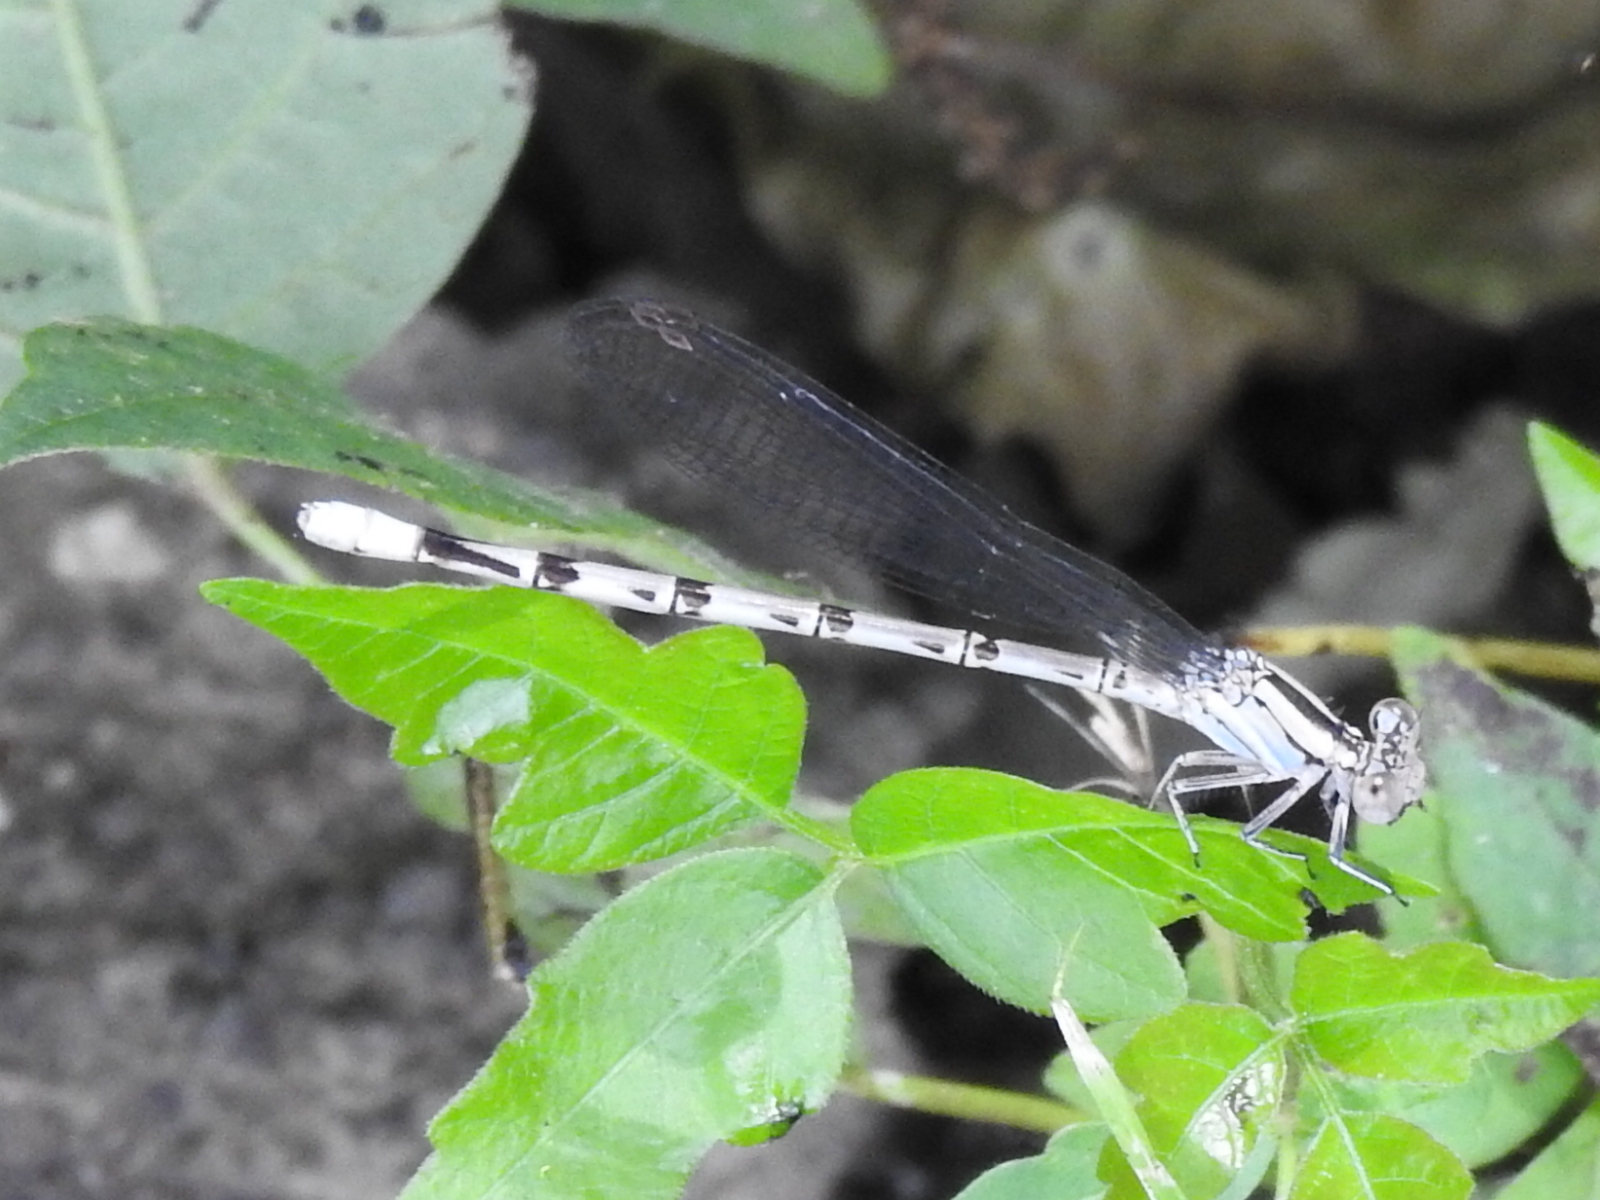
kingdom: Animalia
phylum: Arthropoda
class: Insecta
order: Odonata
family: Coenagrionidae
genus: Argia
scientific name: Argia funebris
